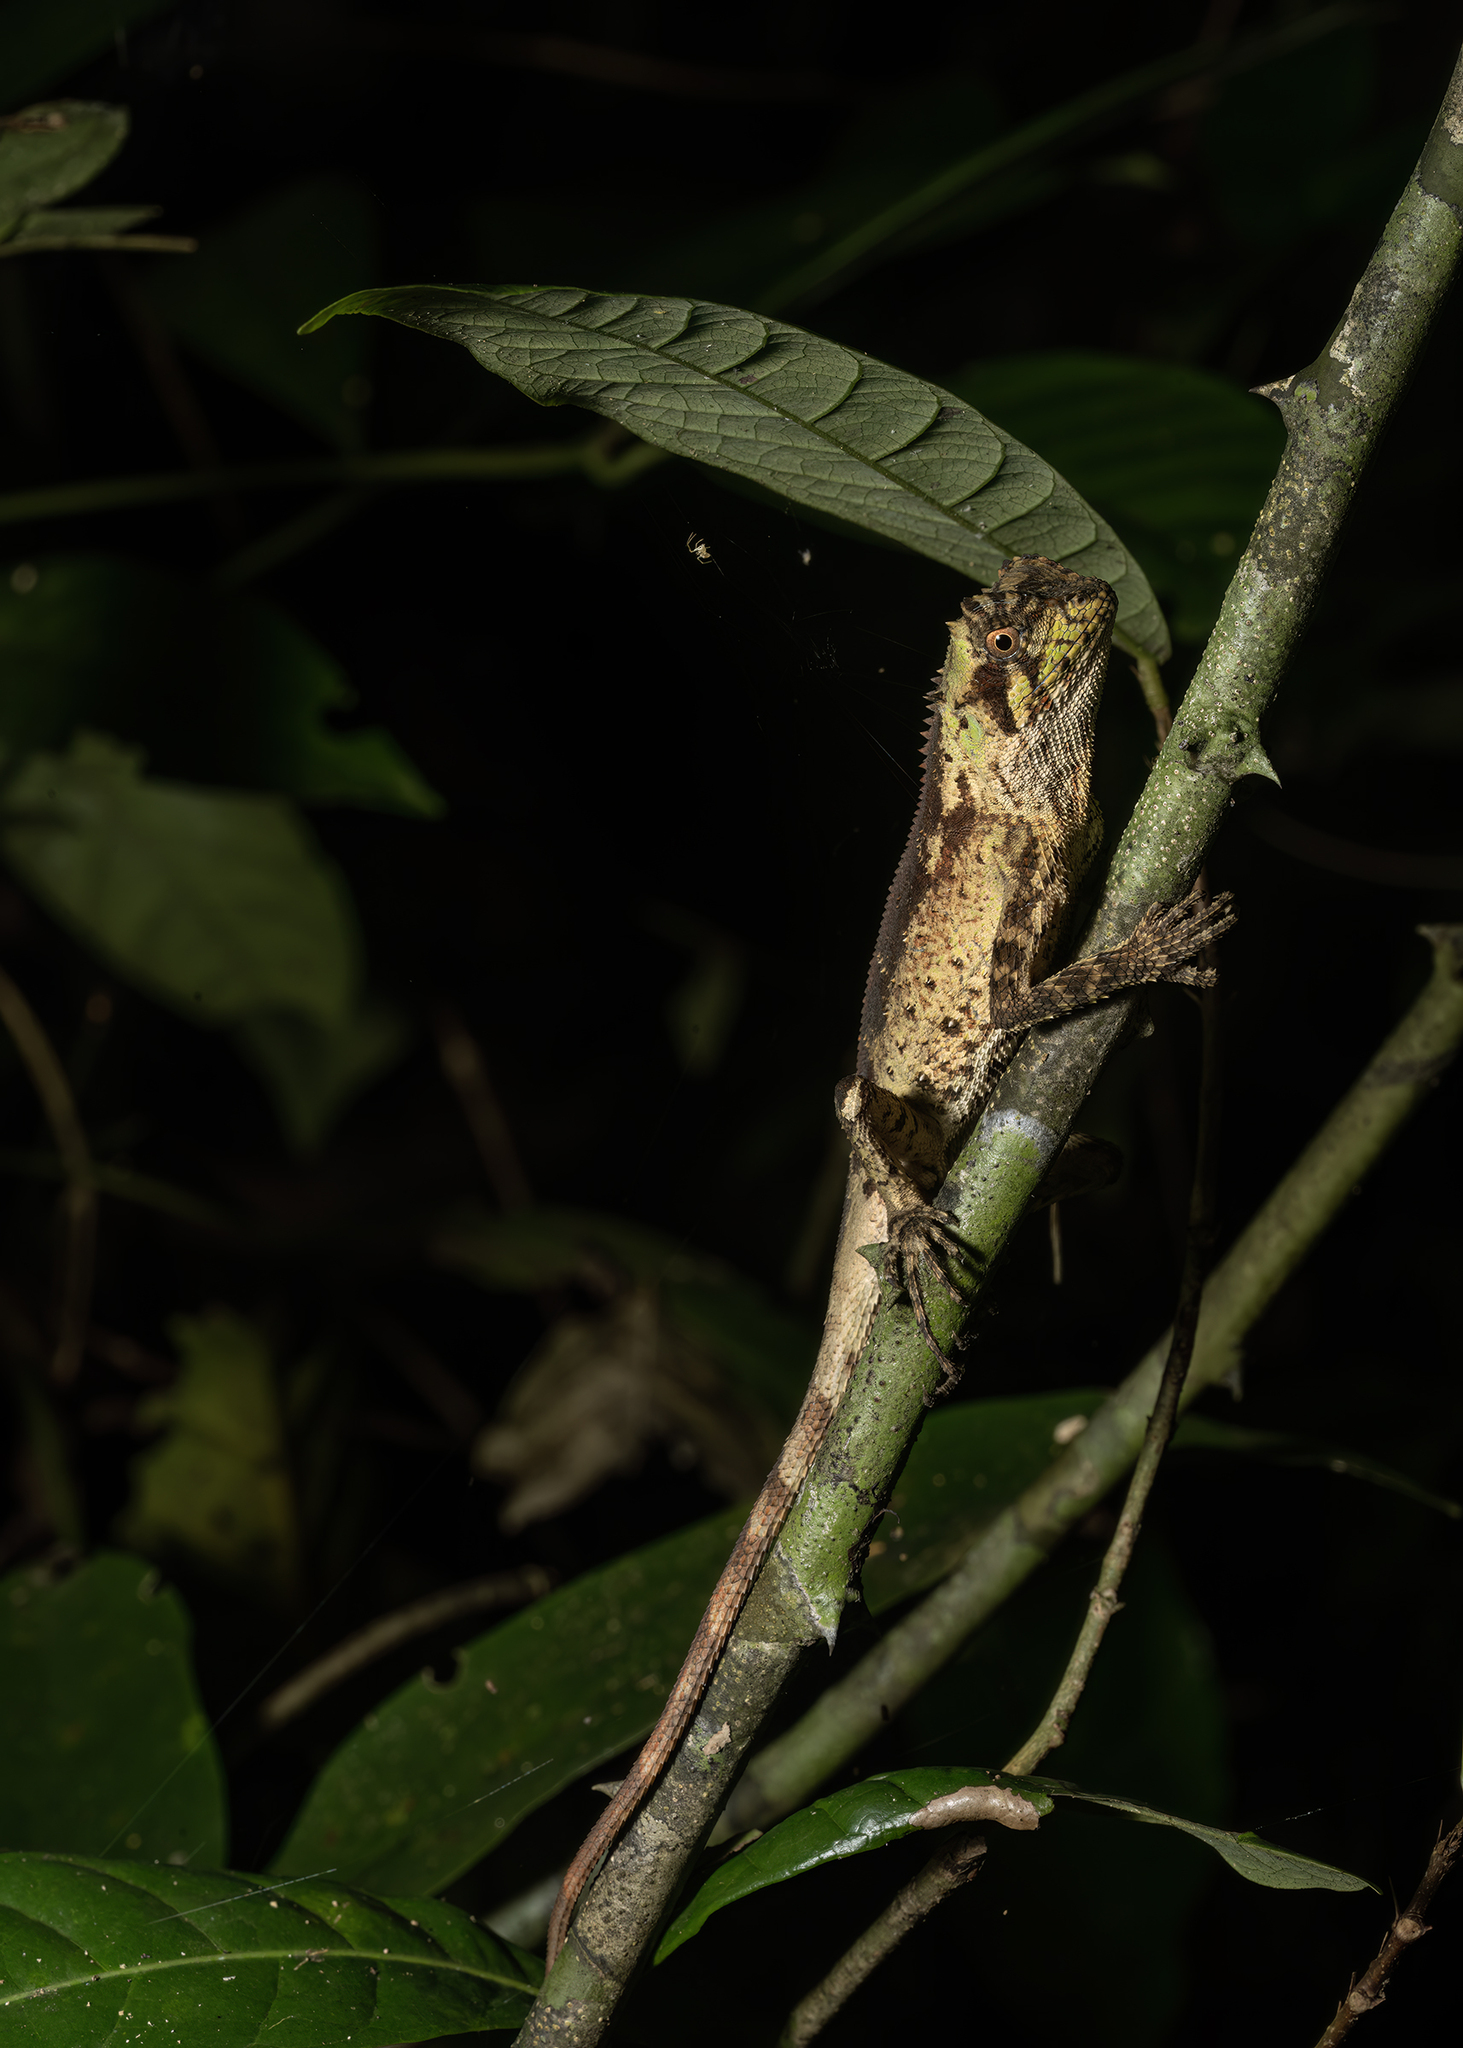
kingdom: Animalia
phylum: Chordata
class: Squamata
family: Agamidae
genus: Acanthosaura
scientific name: Acanthosaura coronata
